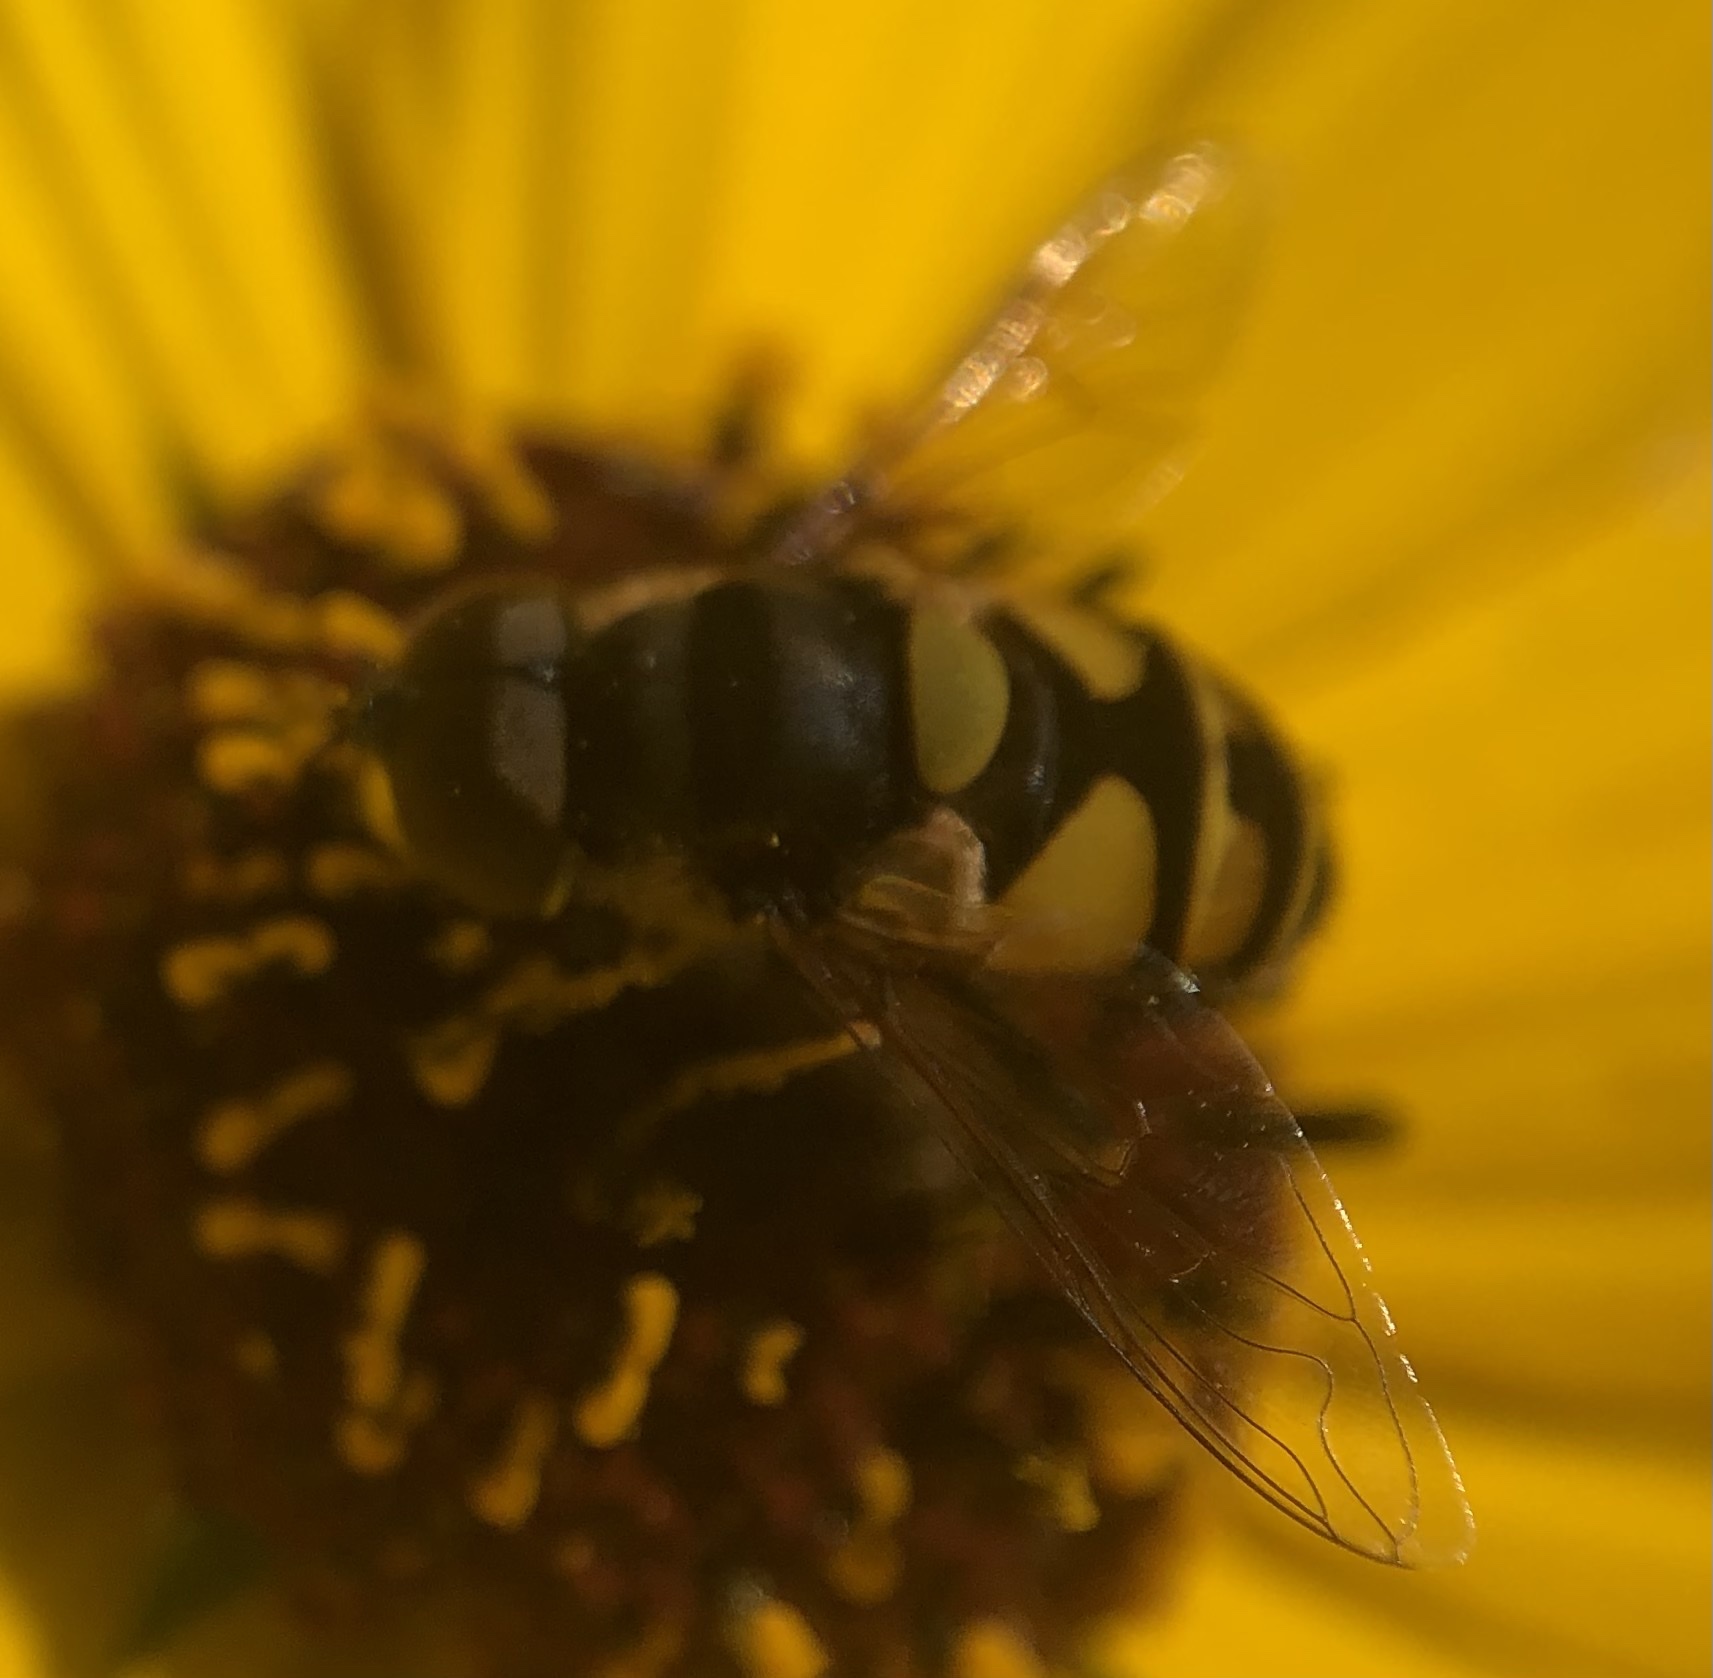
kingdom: Animalia
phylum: Arthropoda
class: Insecta
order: Diptera
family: Syrphidae
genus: Eristalis
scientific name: Eristalis transversa
